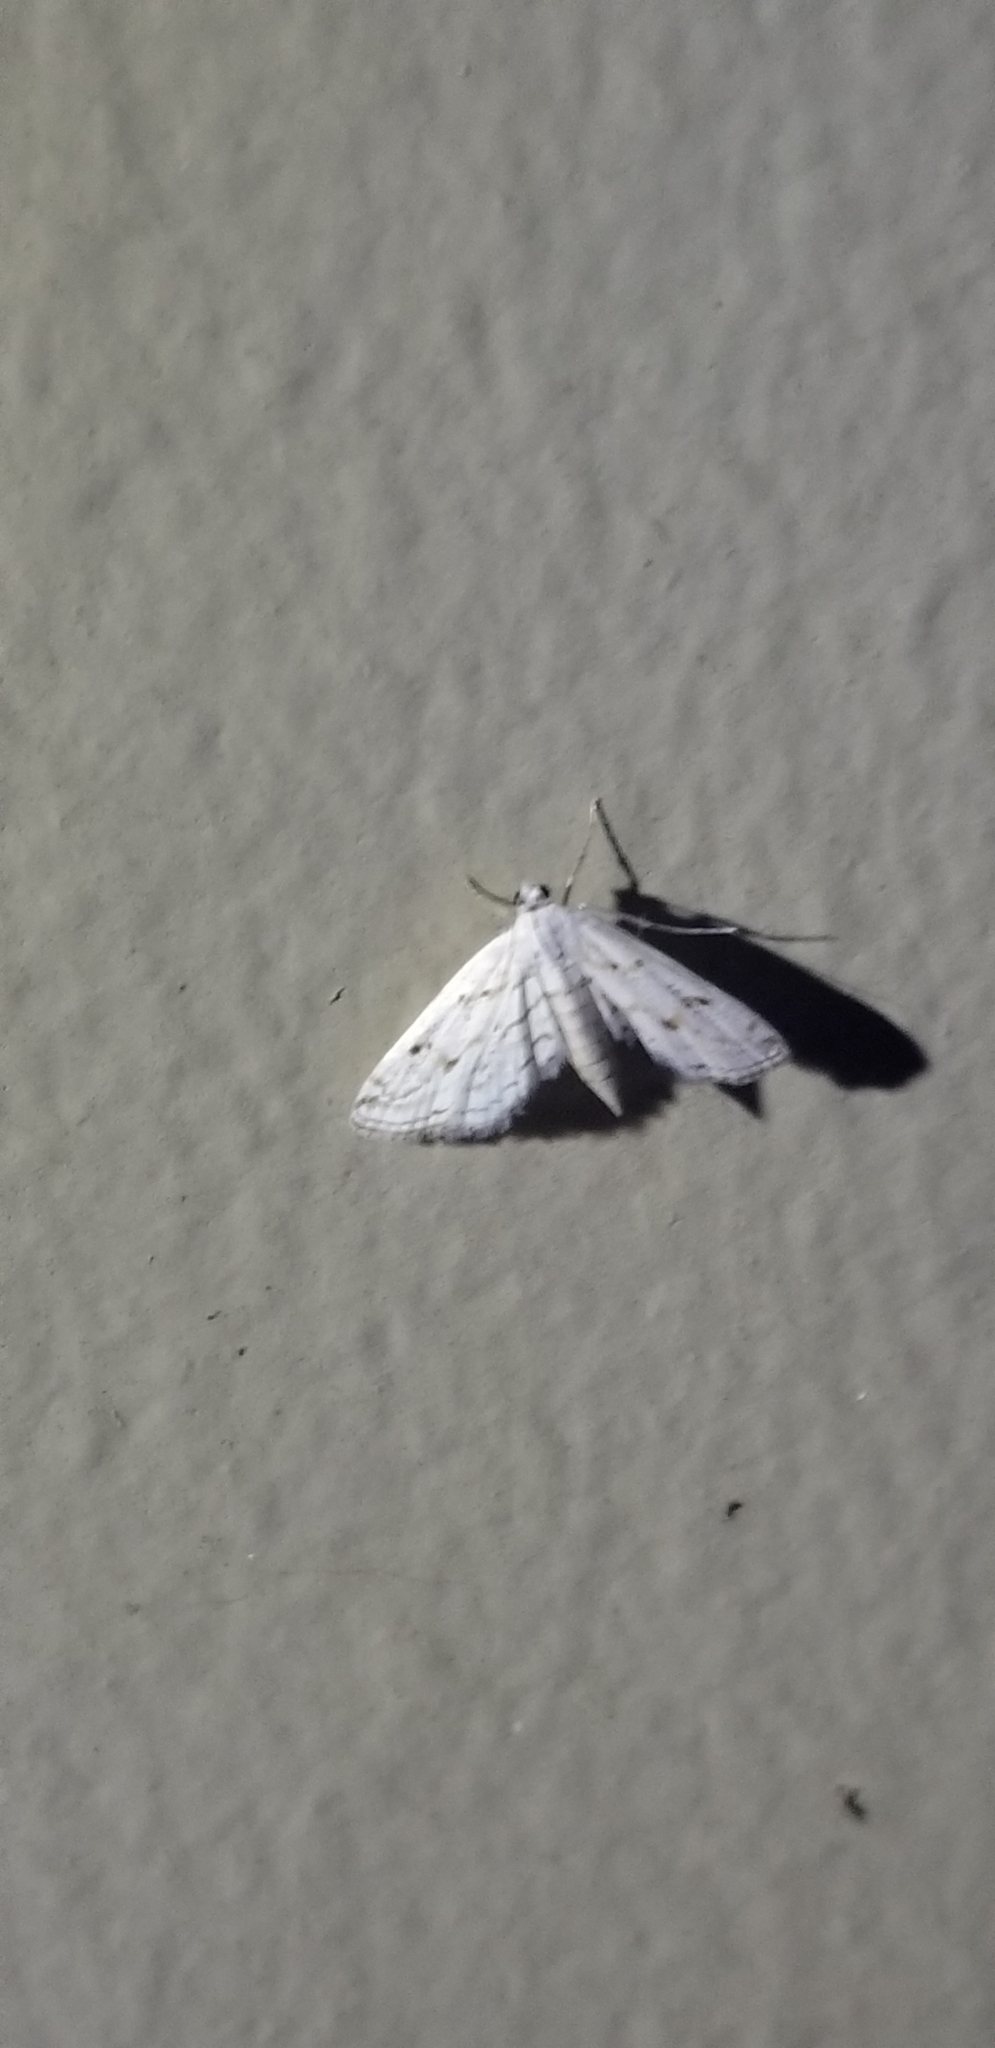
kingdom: Animalia
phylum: Arthropoda
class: Insecta
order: Lepidoptera
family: Crambidae
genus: Parapoynx
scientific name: Parapoynx allionealis
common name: Bladderwort casemaker
